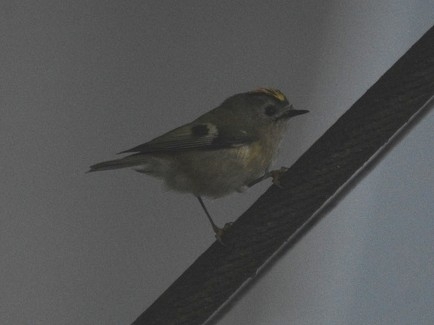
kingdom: Animalia
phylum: Chordata
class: Aves
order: Passeriformes
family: Regulidae
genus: Regulus
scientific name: Regulus regulus
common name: Goldcrest
